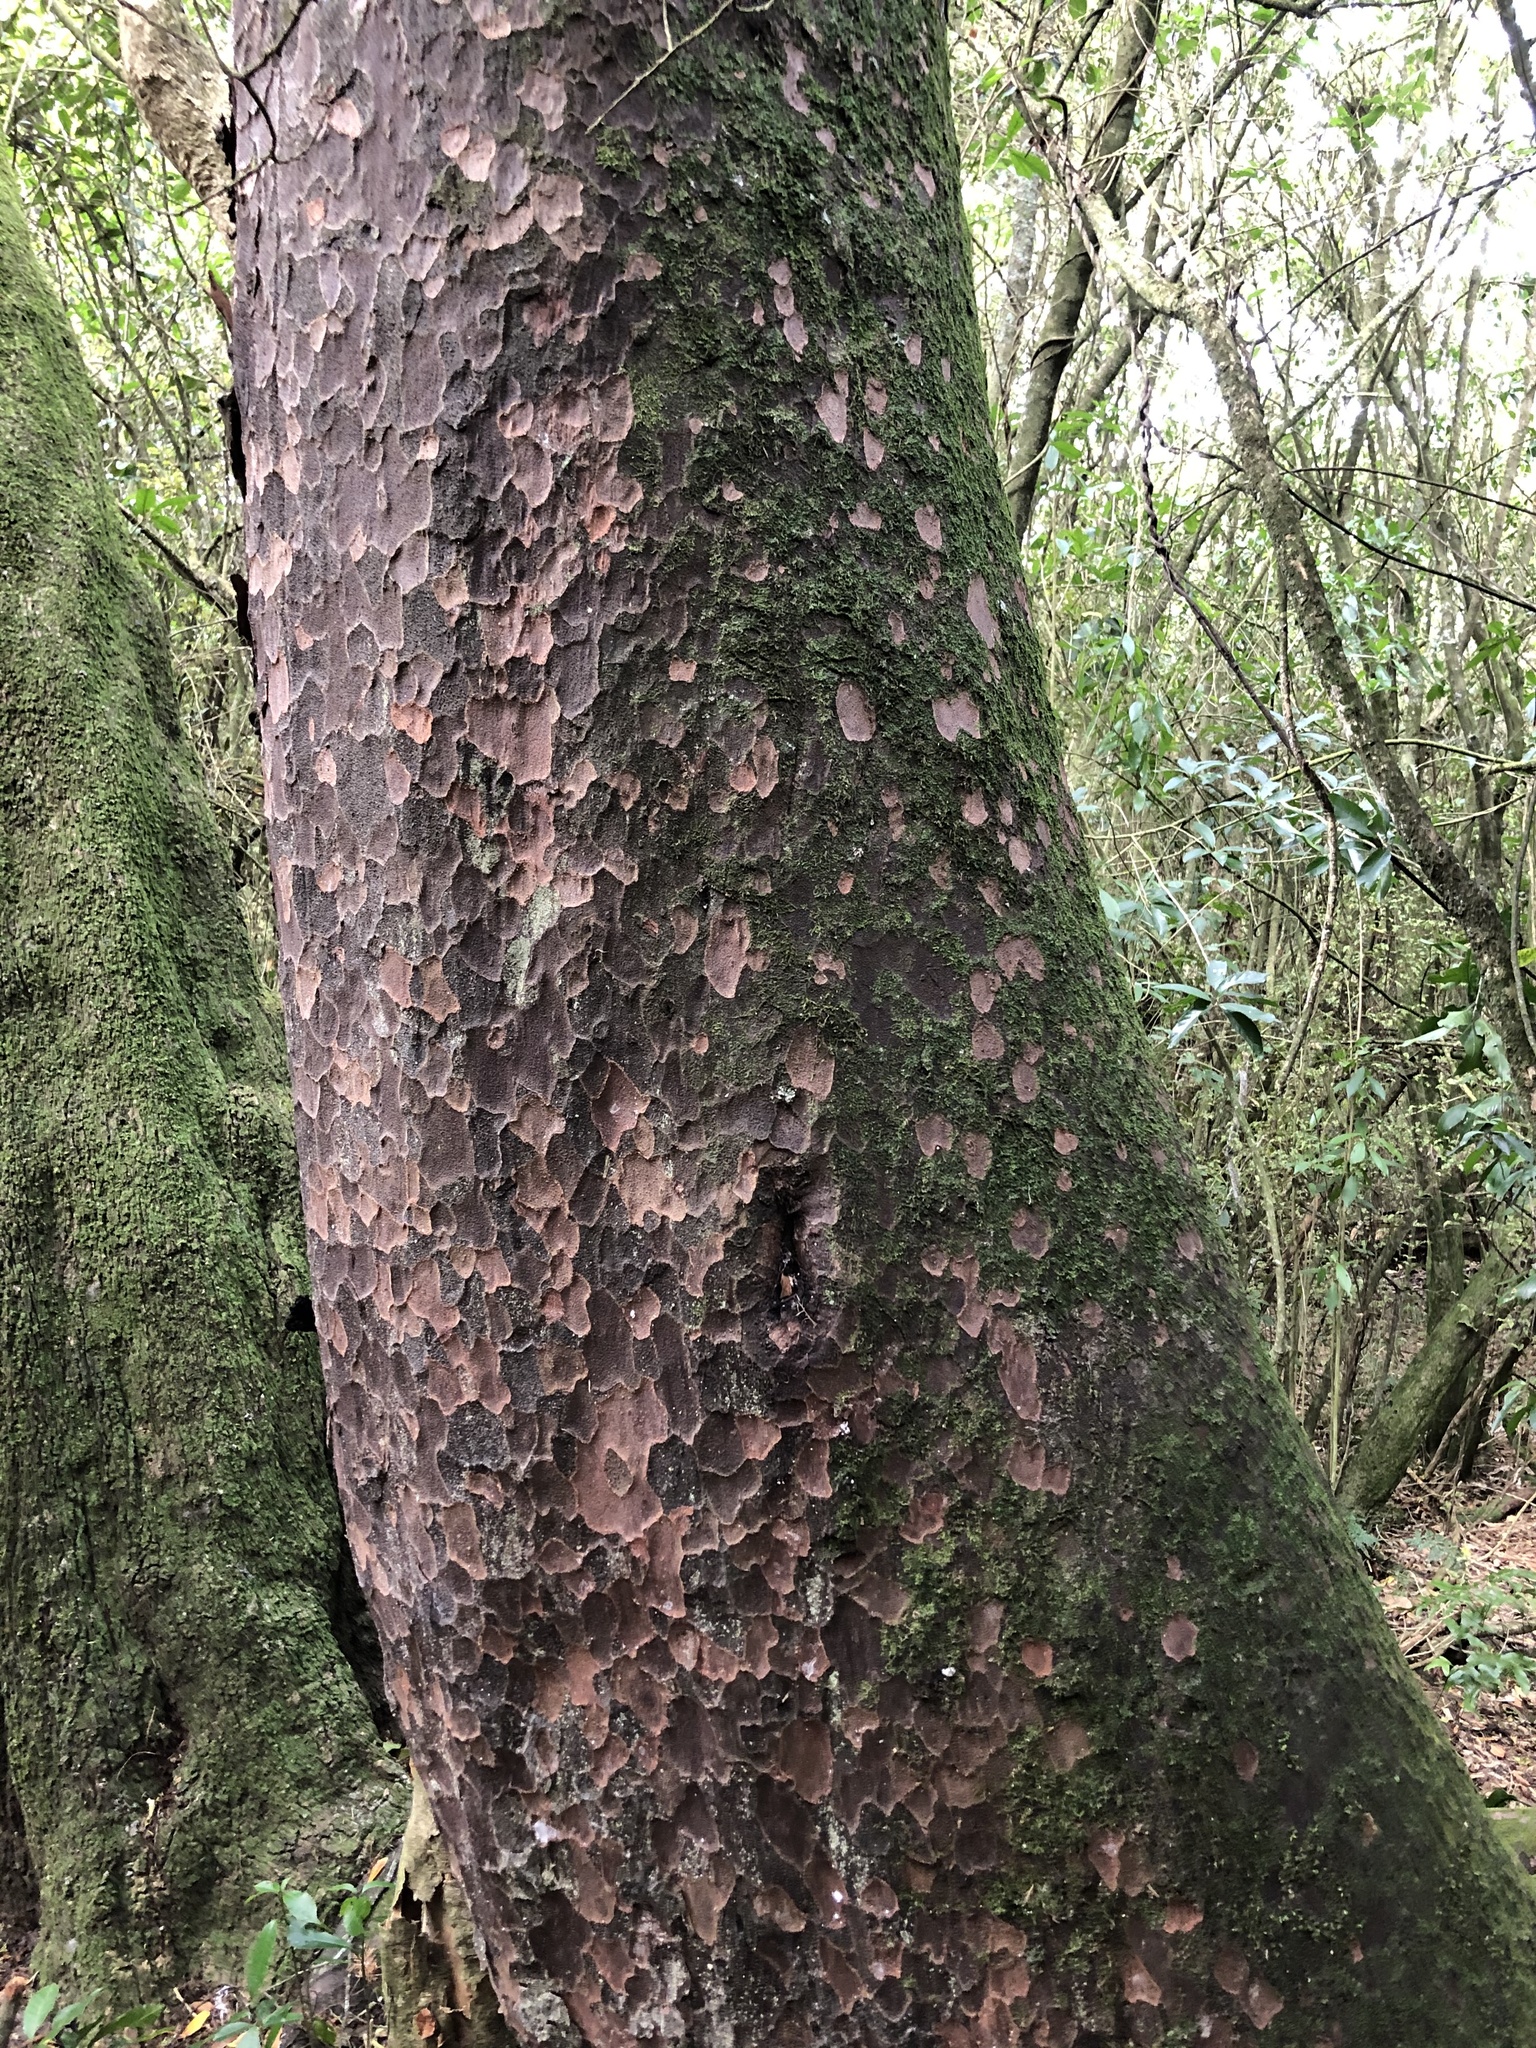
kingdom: Plantae
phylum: Tracheophyta
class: Pinopsida
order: Pinales
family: Podocarpaceae
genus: Prumnopitys
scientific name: Prumnopitys taxifolia
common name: Matai
